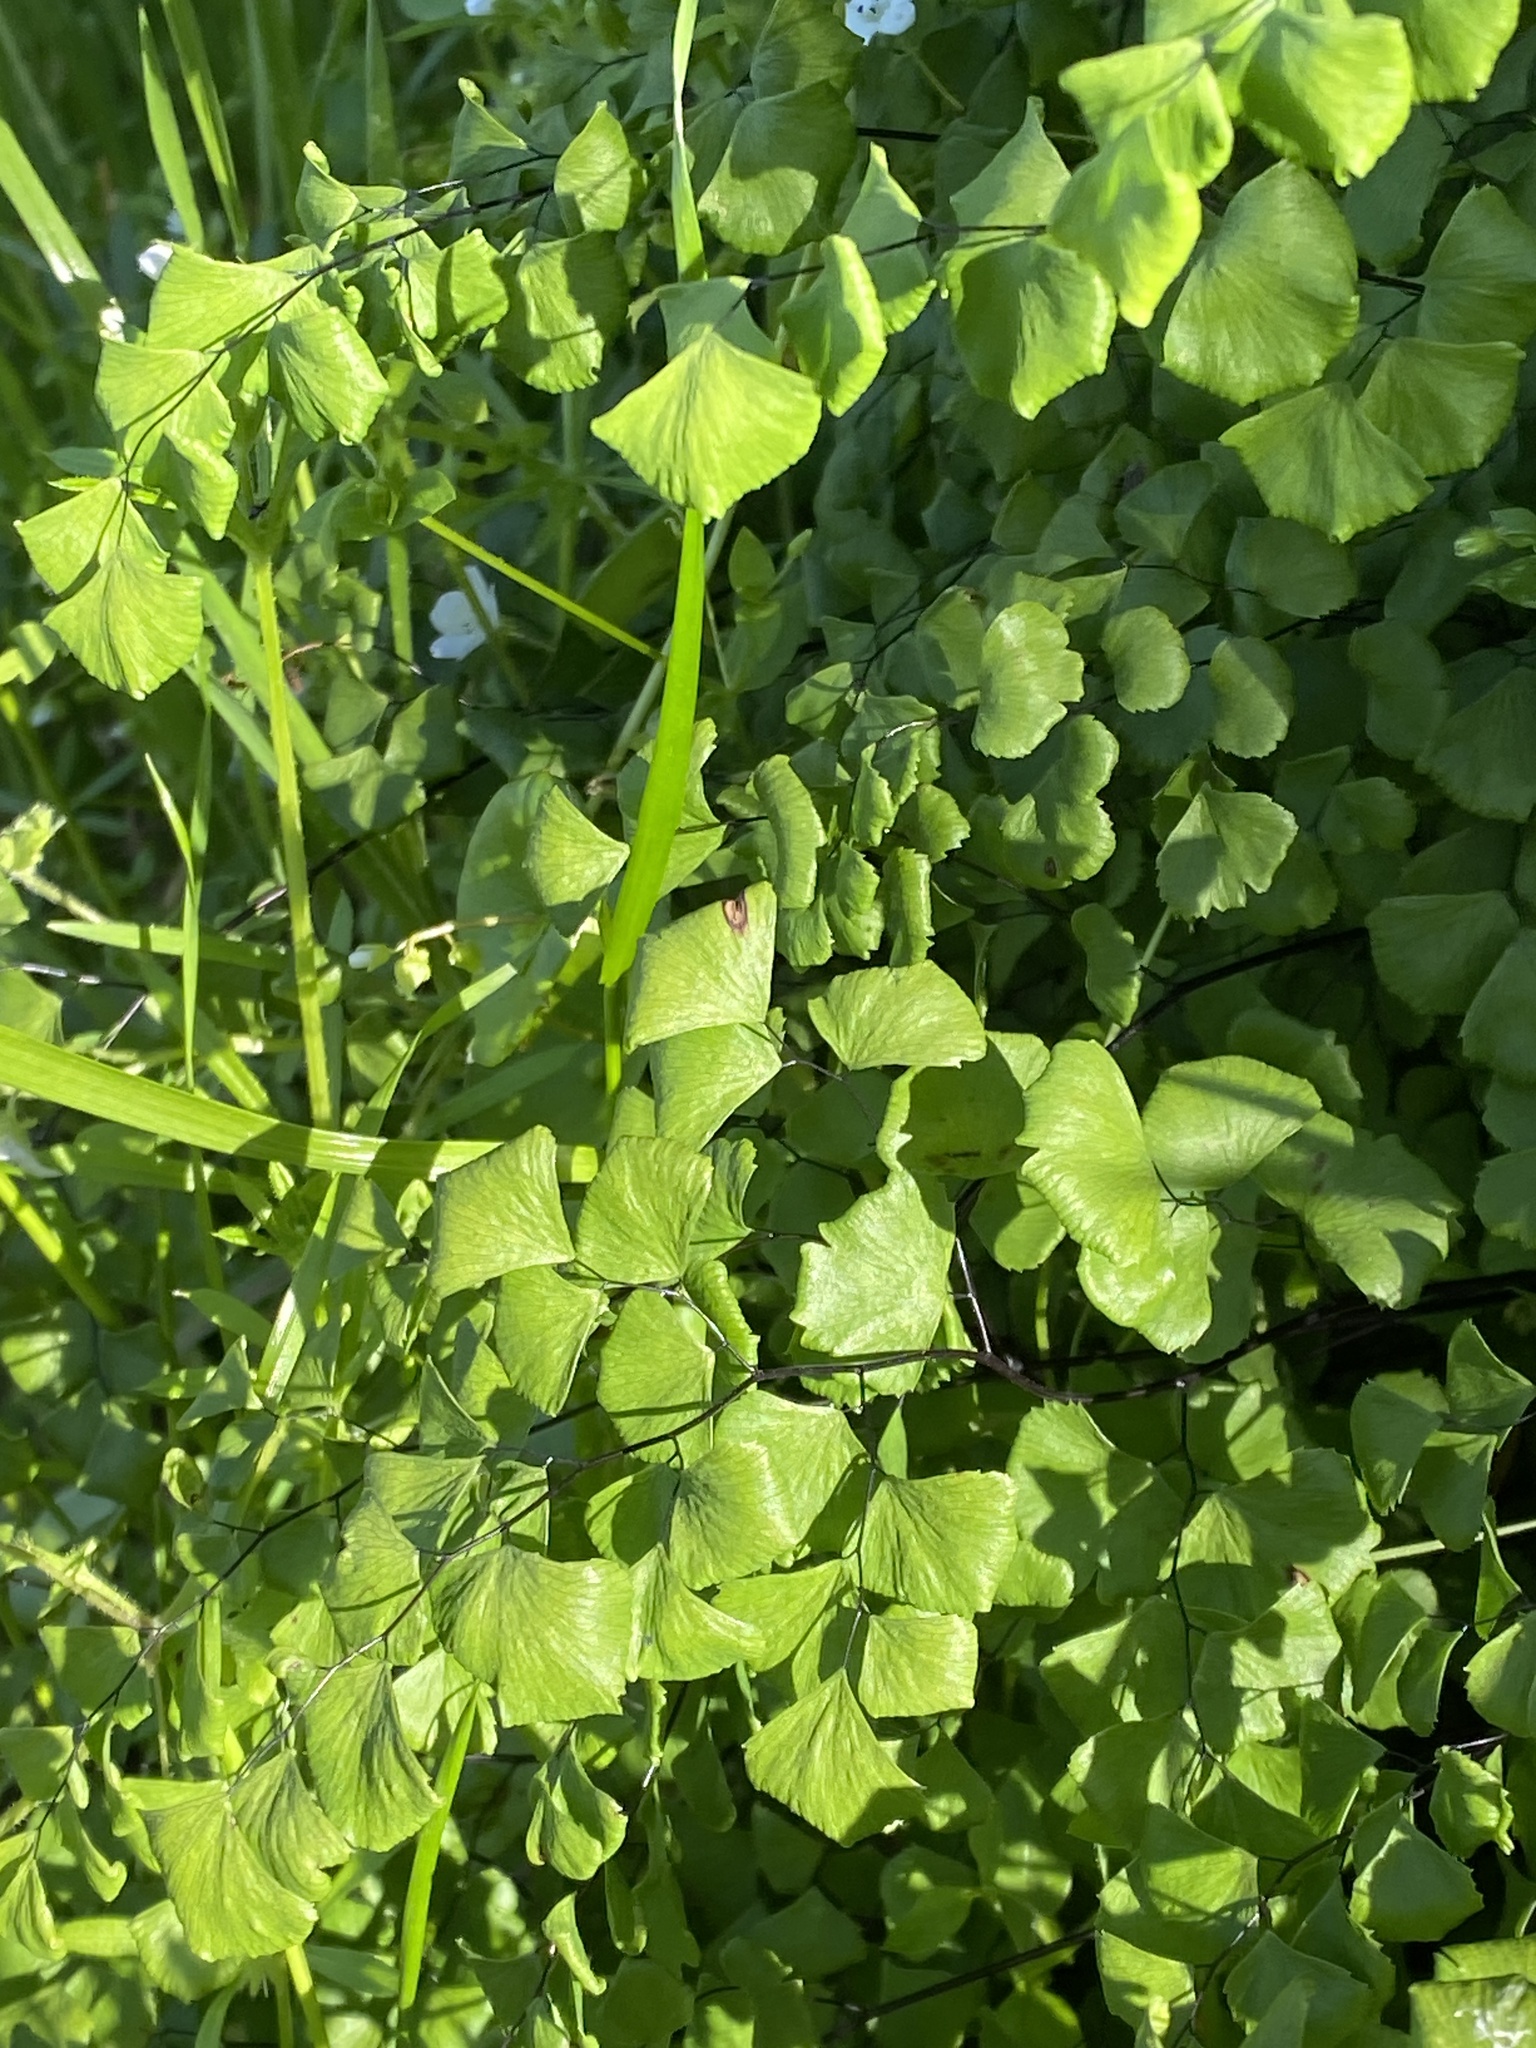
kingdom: Plantae
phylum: Tracheophyta
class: Polypodiopsida
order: Polypodiales
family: Pteridaceae
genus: Adiantum
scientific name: Adiantum jordanii
